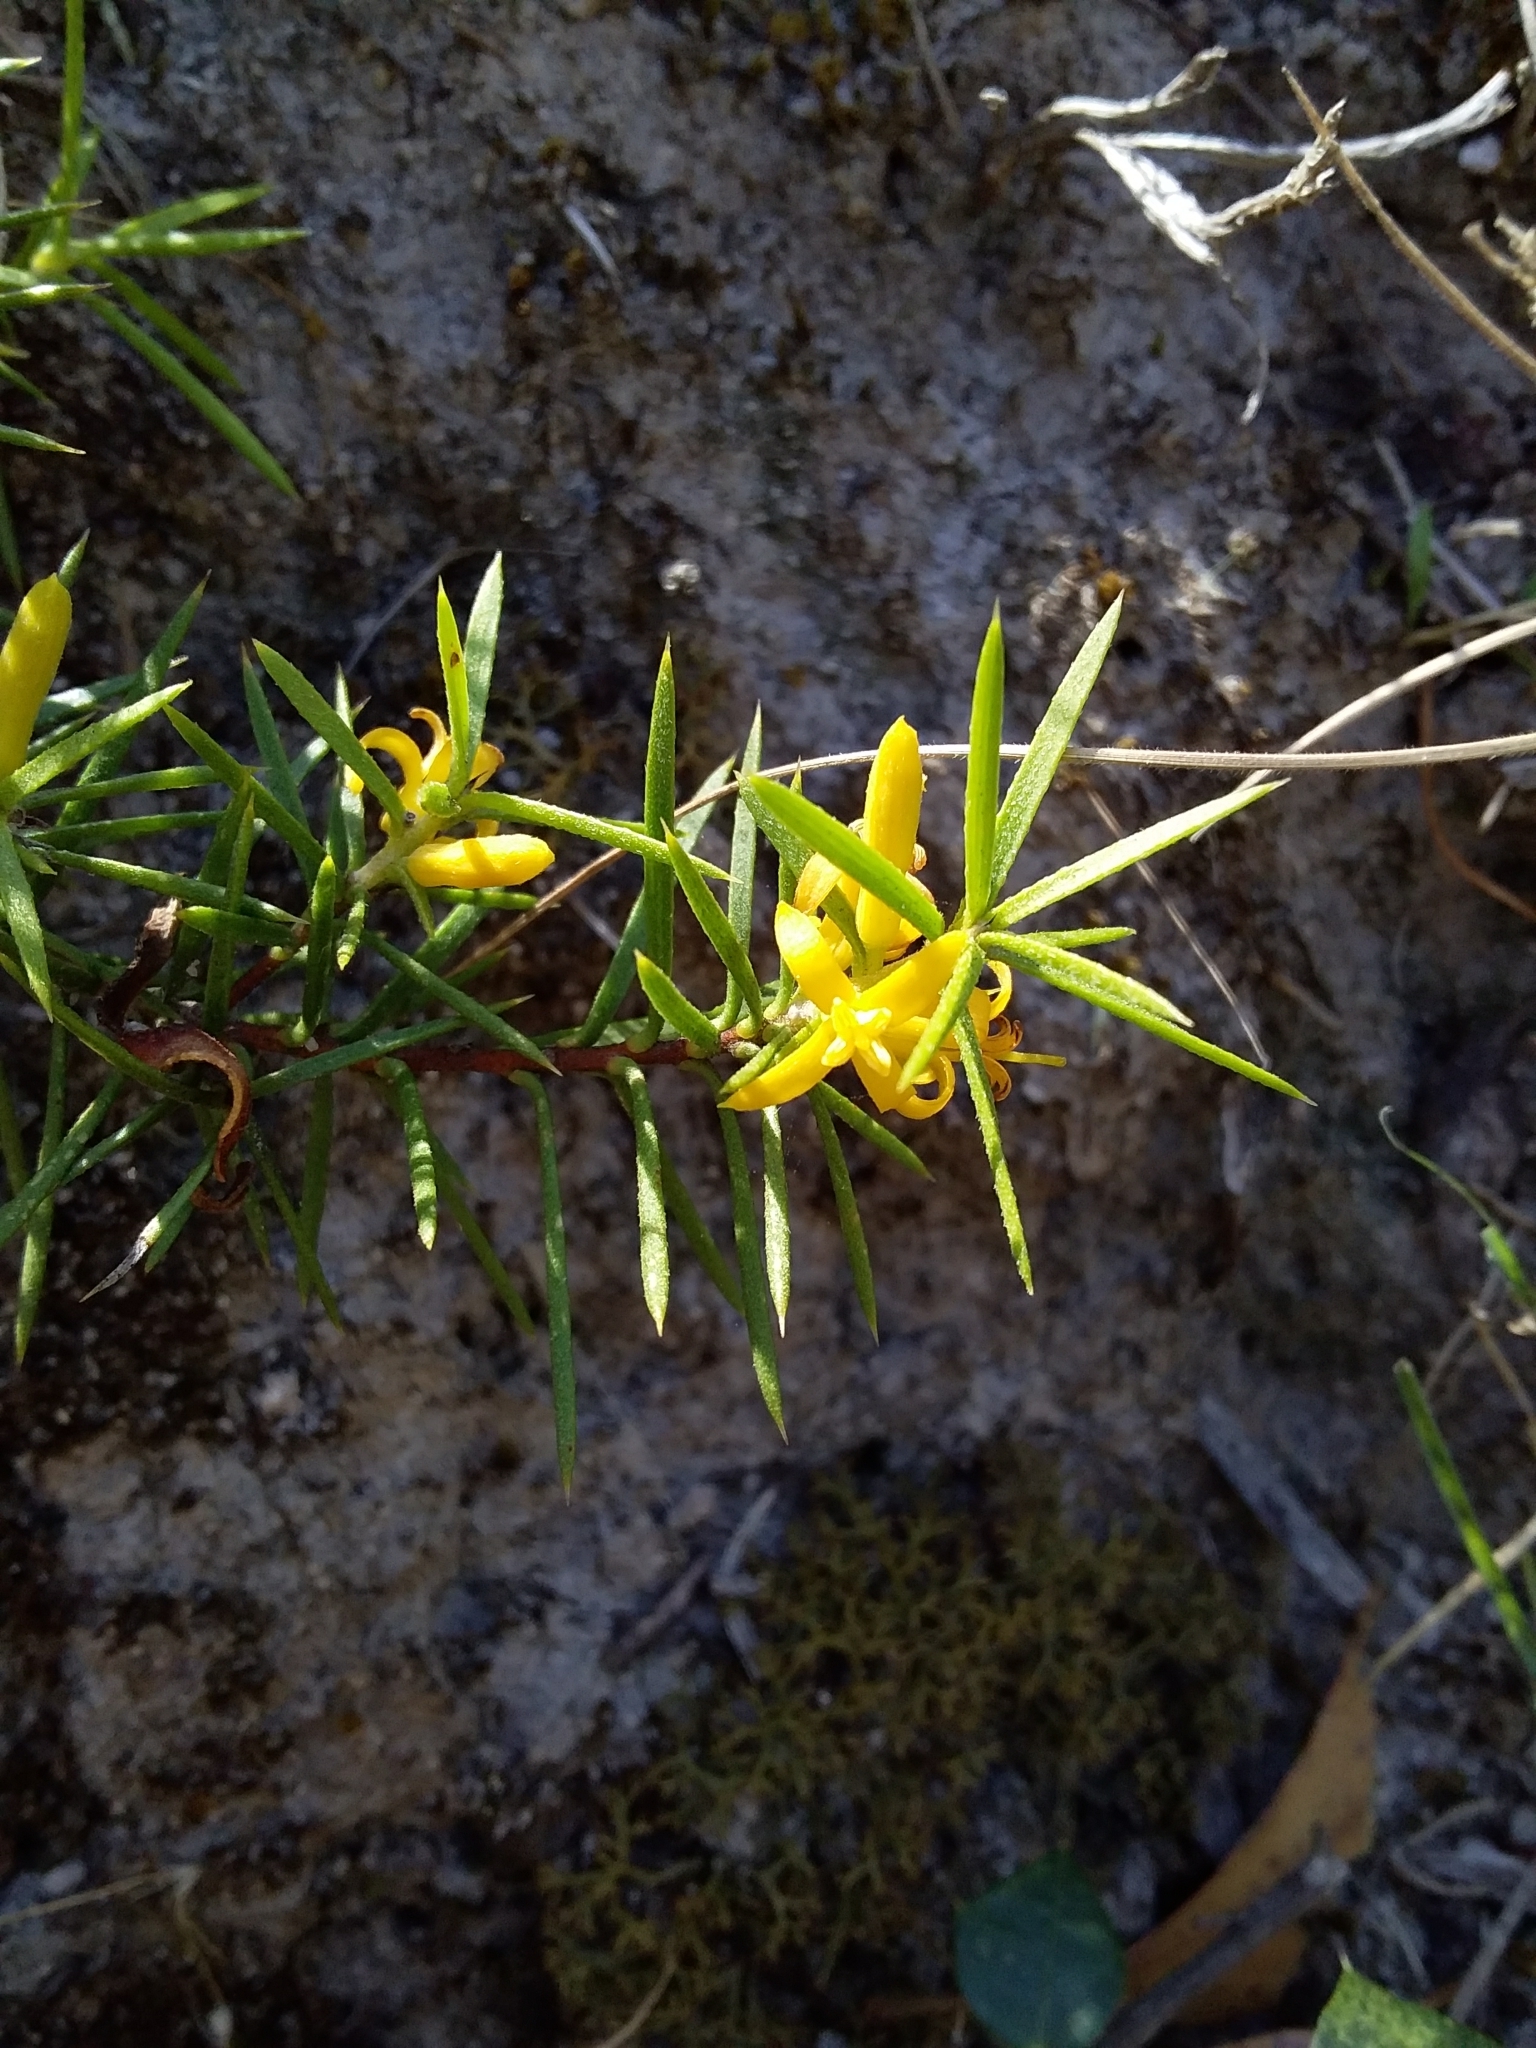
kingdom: Plantae
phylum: Tracheophyta
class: Magnoliopsida
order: Proteales
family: Proteaceae
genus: Persoonia
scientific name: Persoonia juniperina
